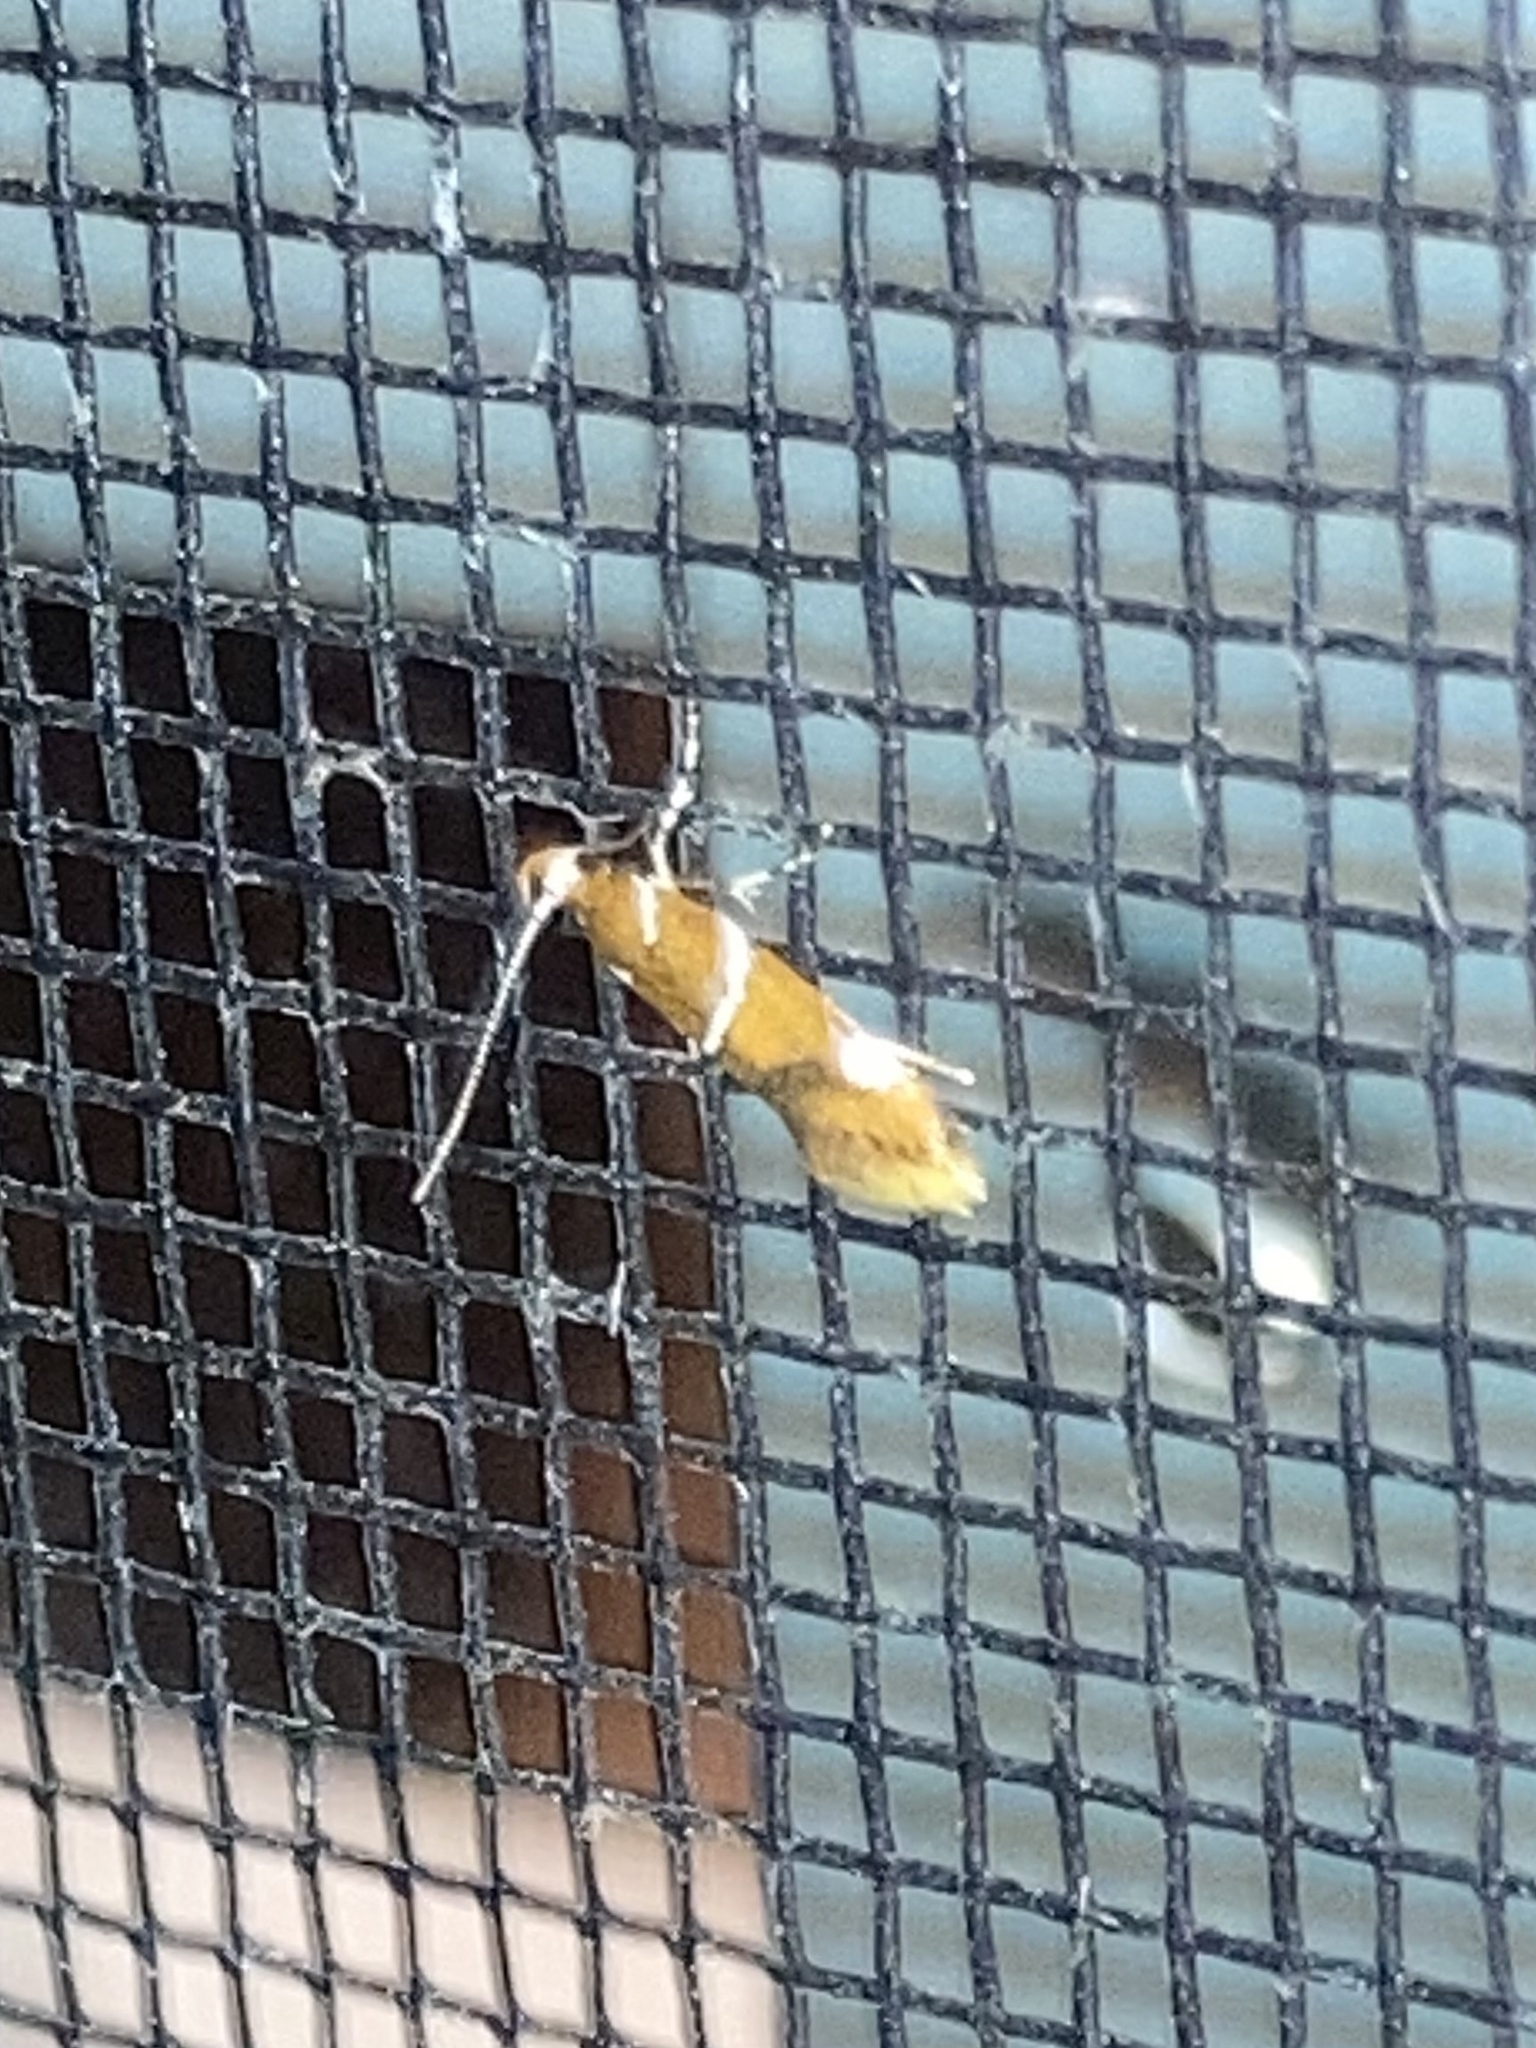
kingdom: Animalia
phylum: Arthropoda
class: Insecta
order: Lepidoptera
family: Oecophoridae
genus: Promalactis
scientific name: Promalactis suzukiella
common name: Moth
